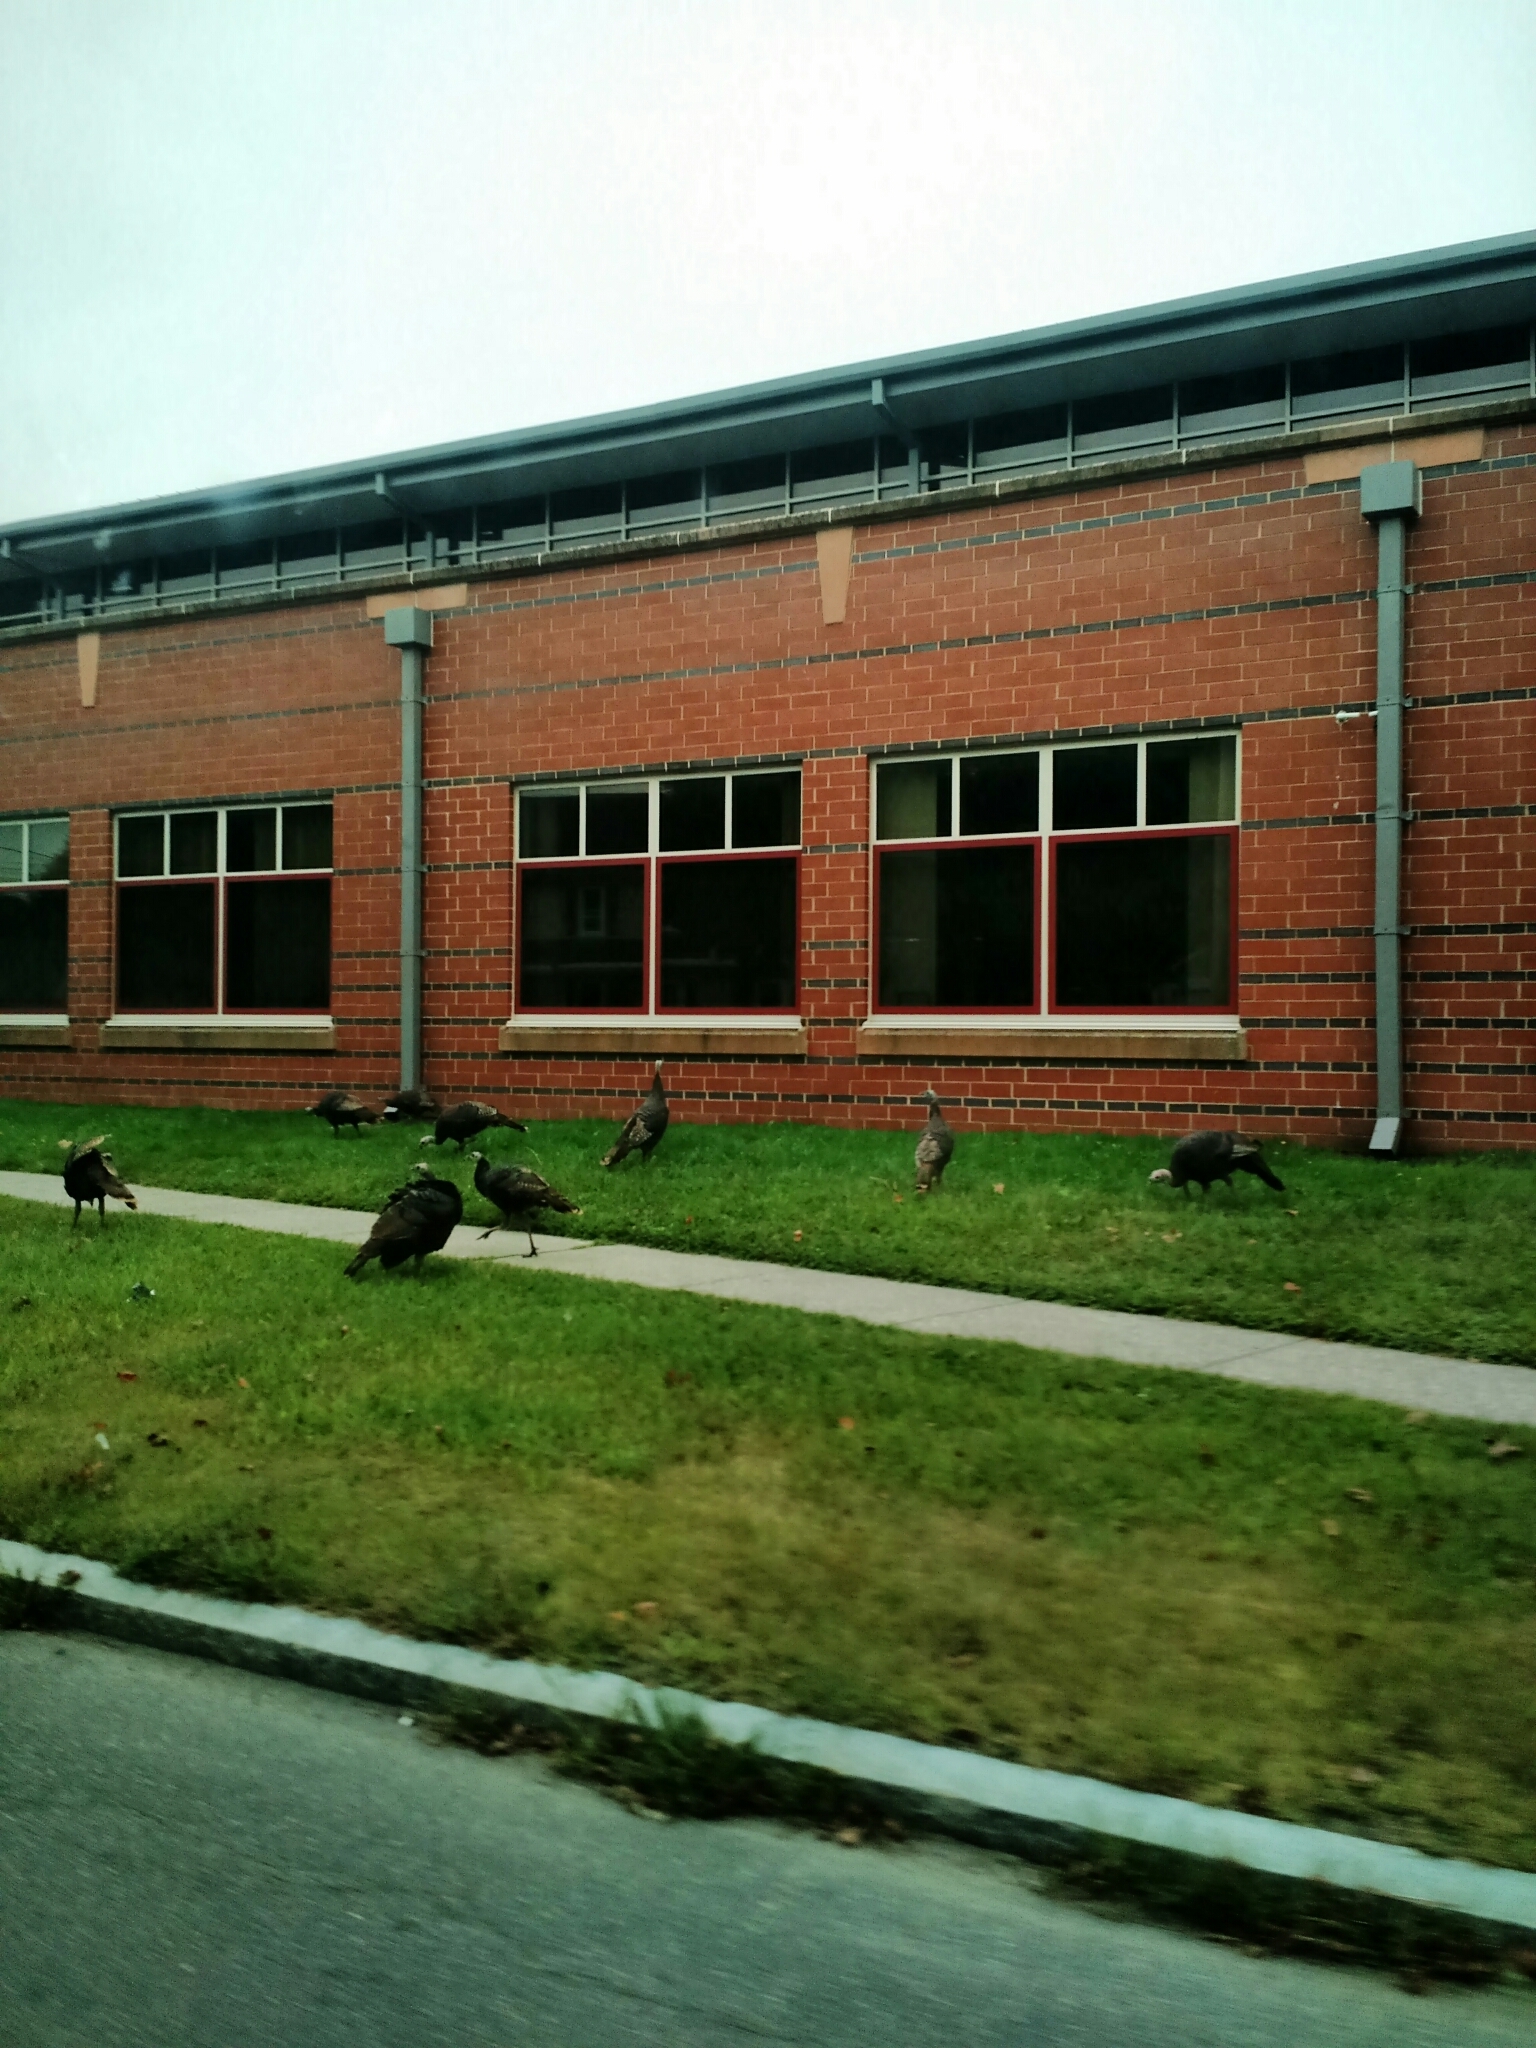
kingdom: Animalia
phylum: Chordata
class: Aves
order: Galliformes
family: Phasianidae
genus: Meleagris
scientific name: Meleagris gallopavo
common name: Wild turkey
